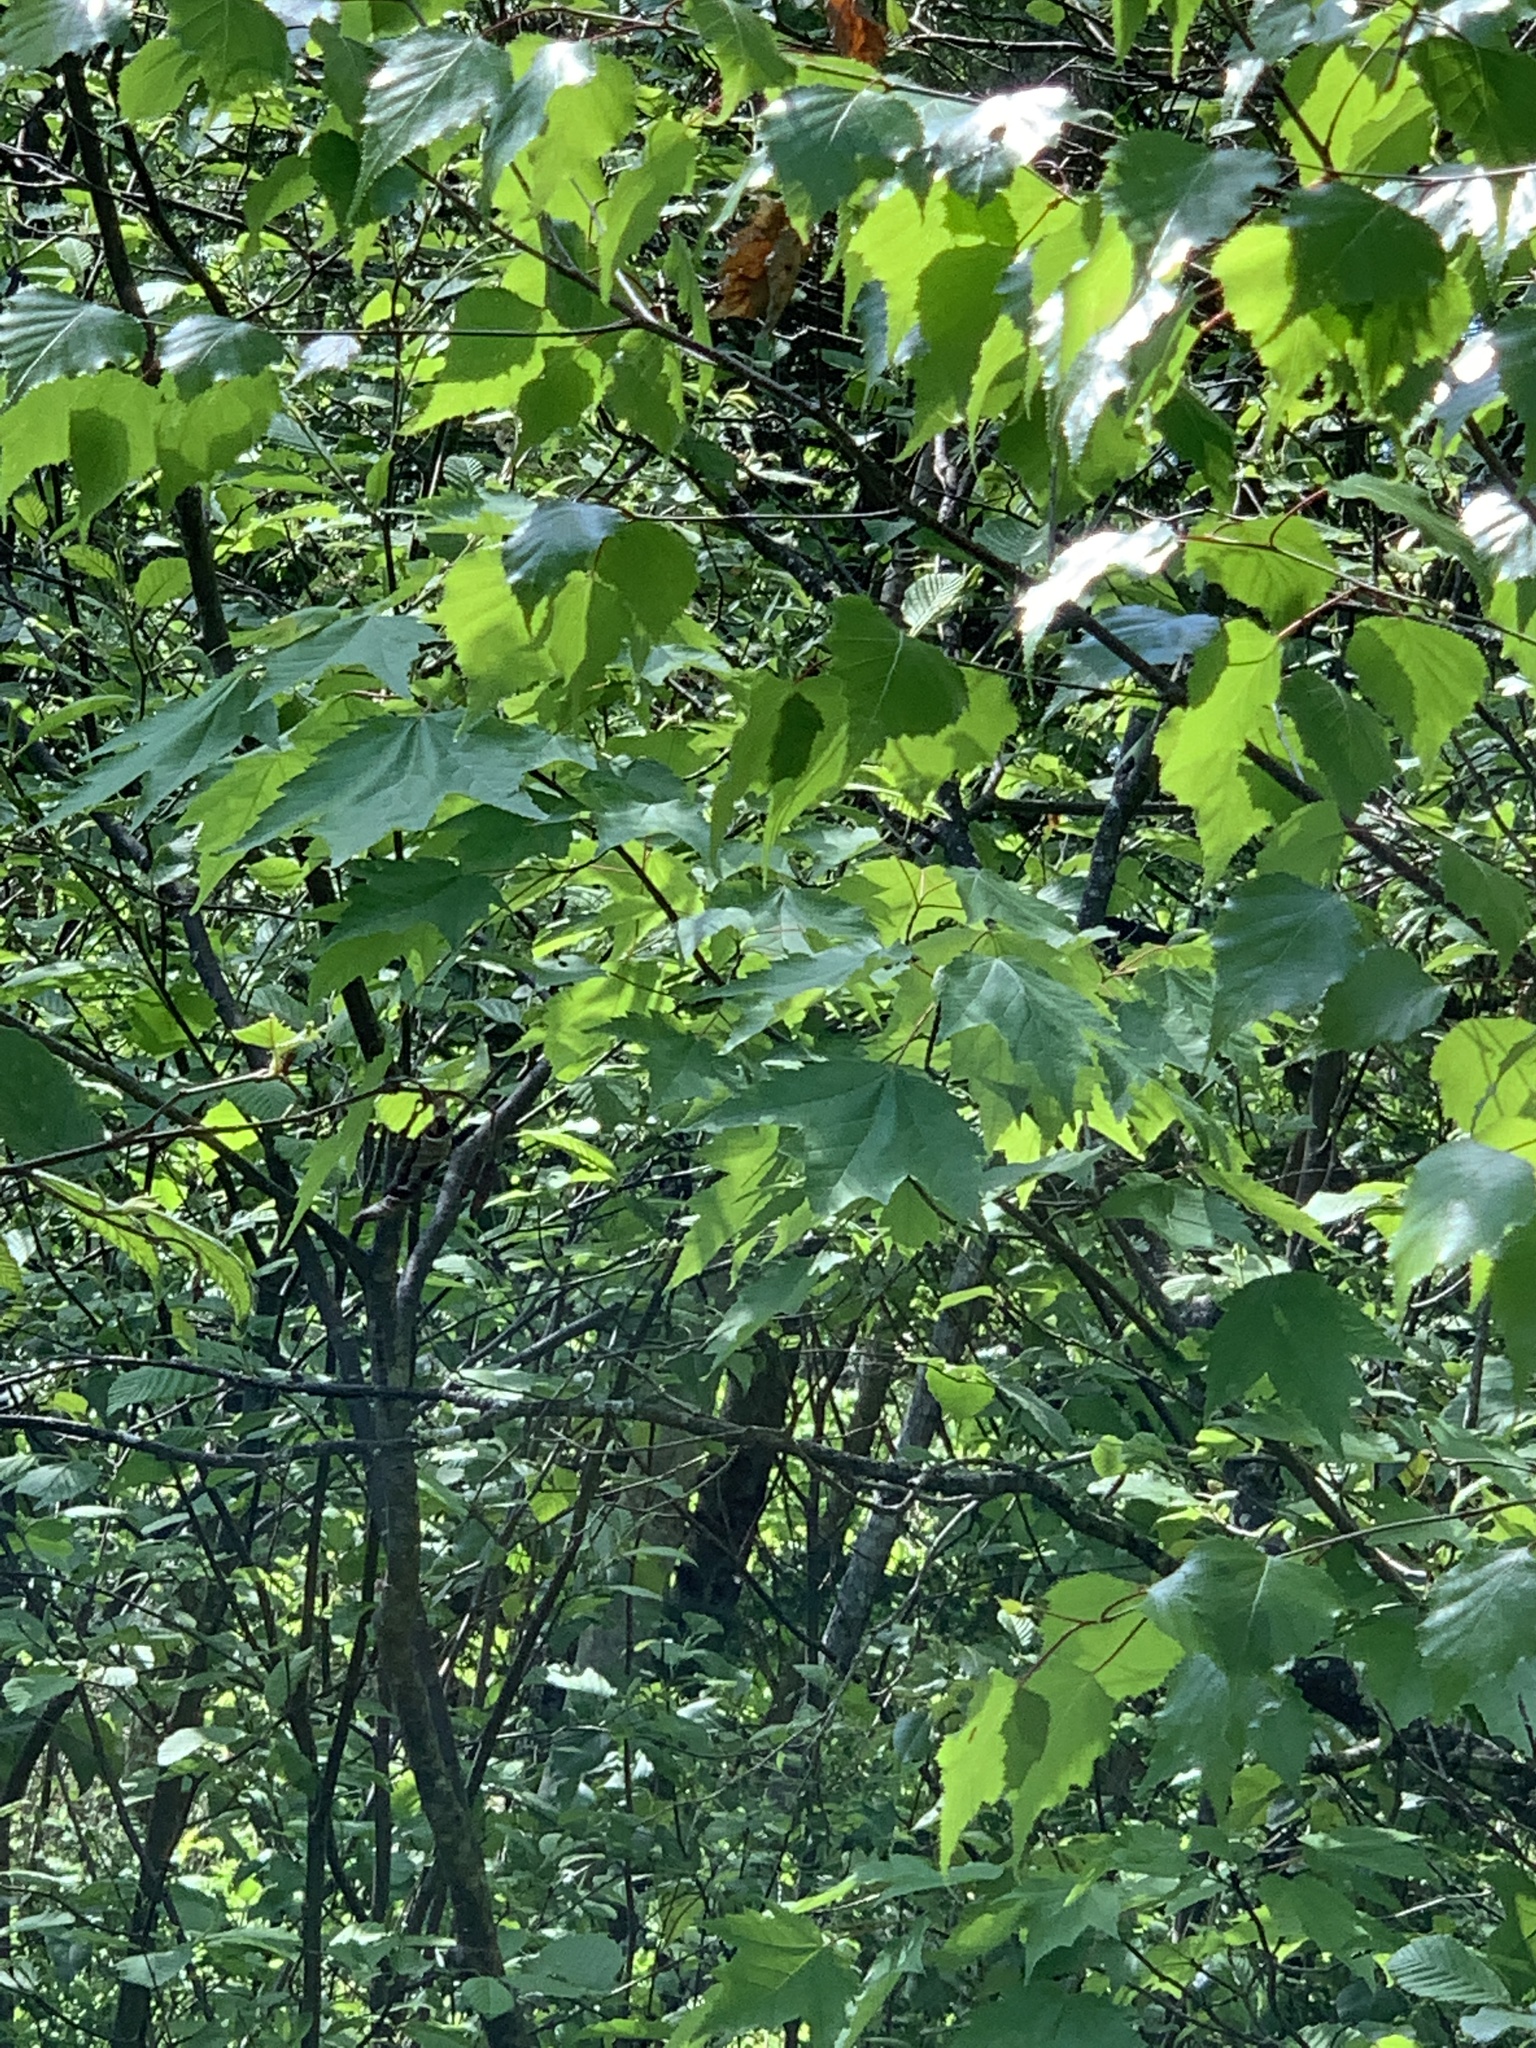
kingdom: Plantae
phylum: Tracheophyta
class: Magnoliopsida
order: Sapindales
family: Sapindaceae
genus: Acer
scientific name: Acer rubrum
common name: Red maple
